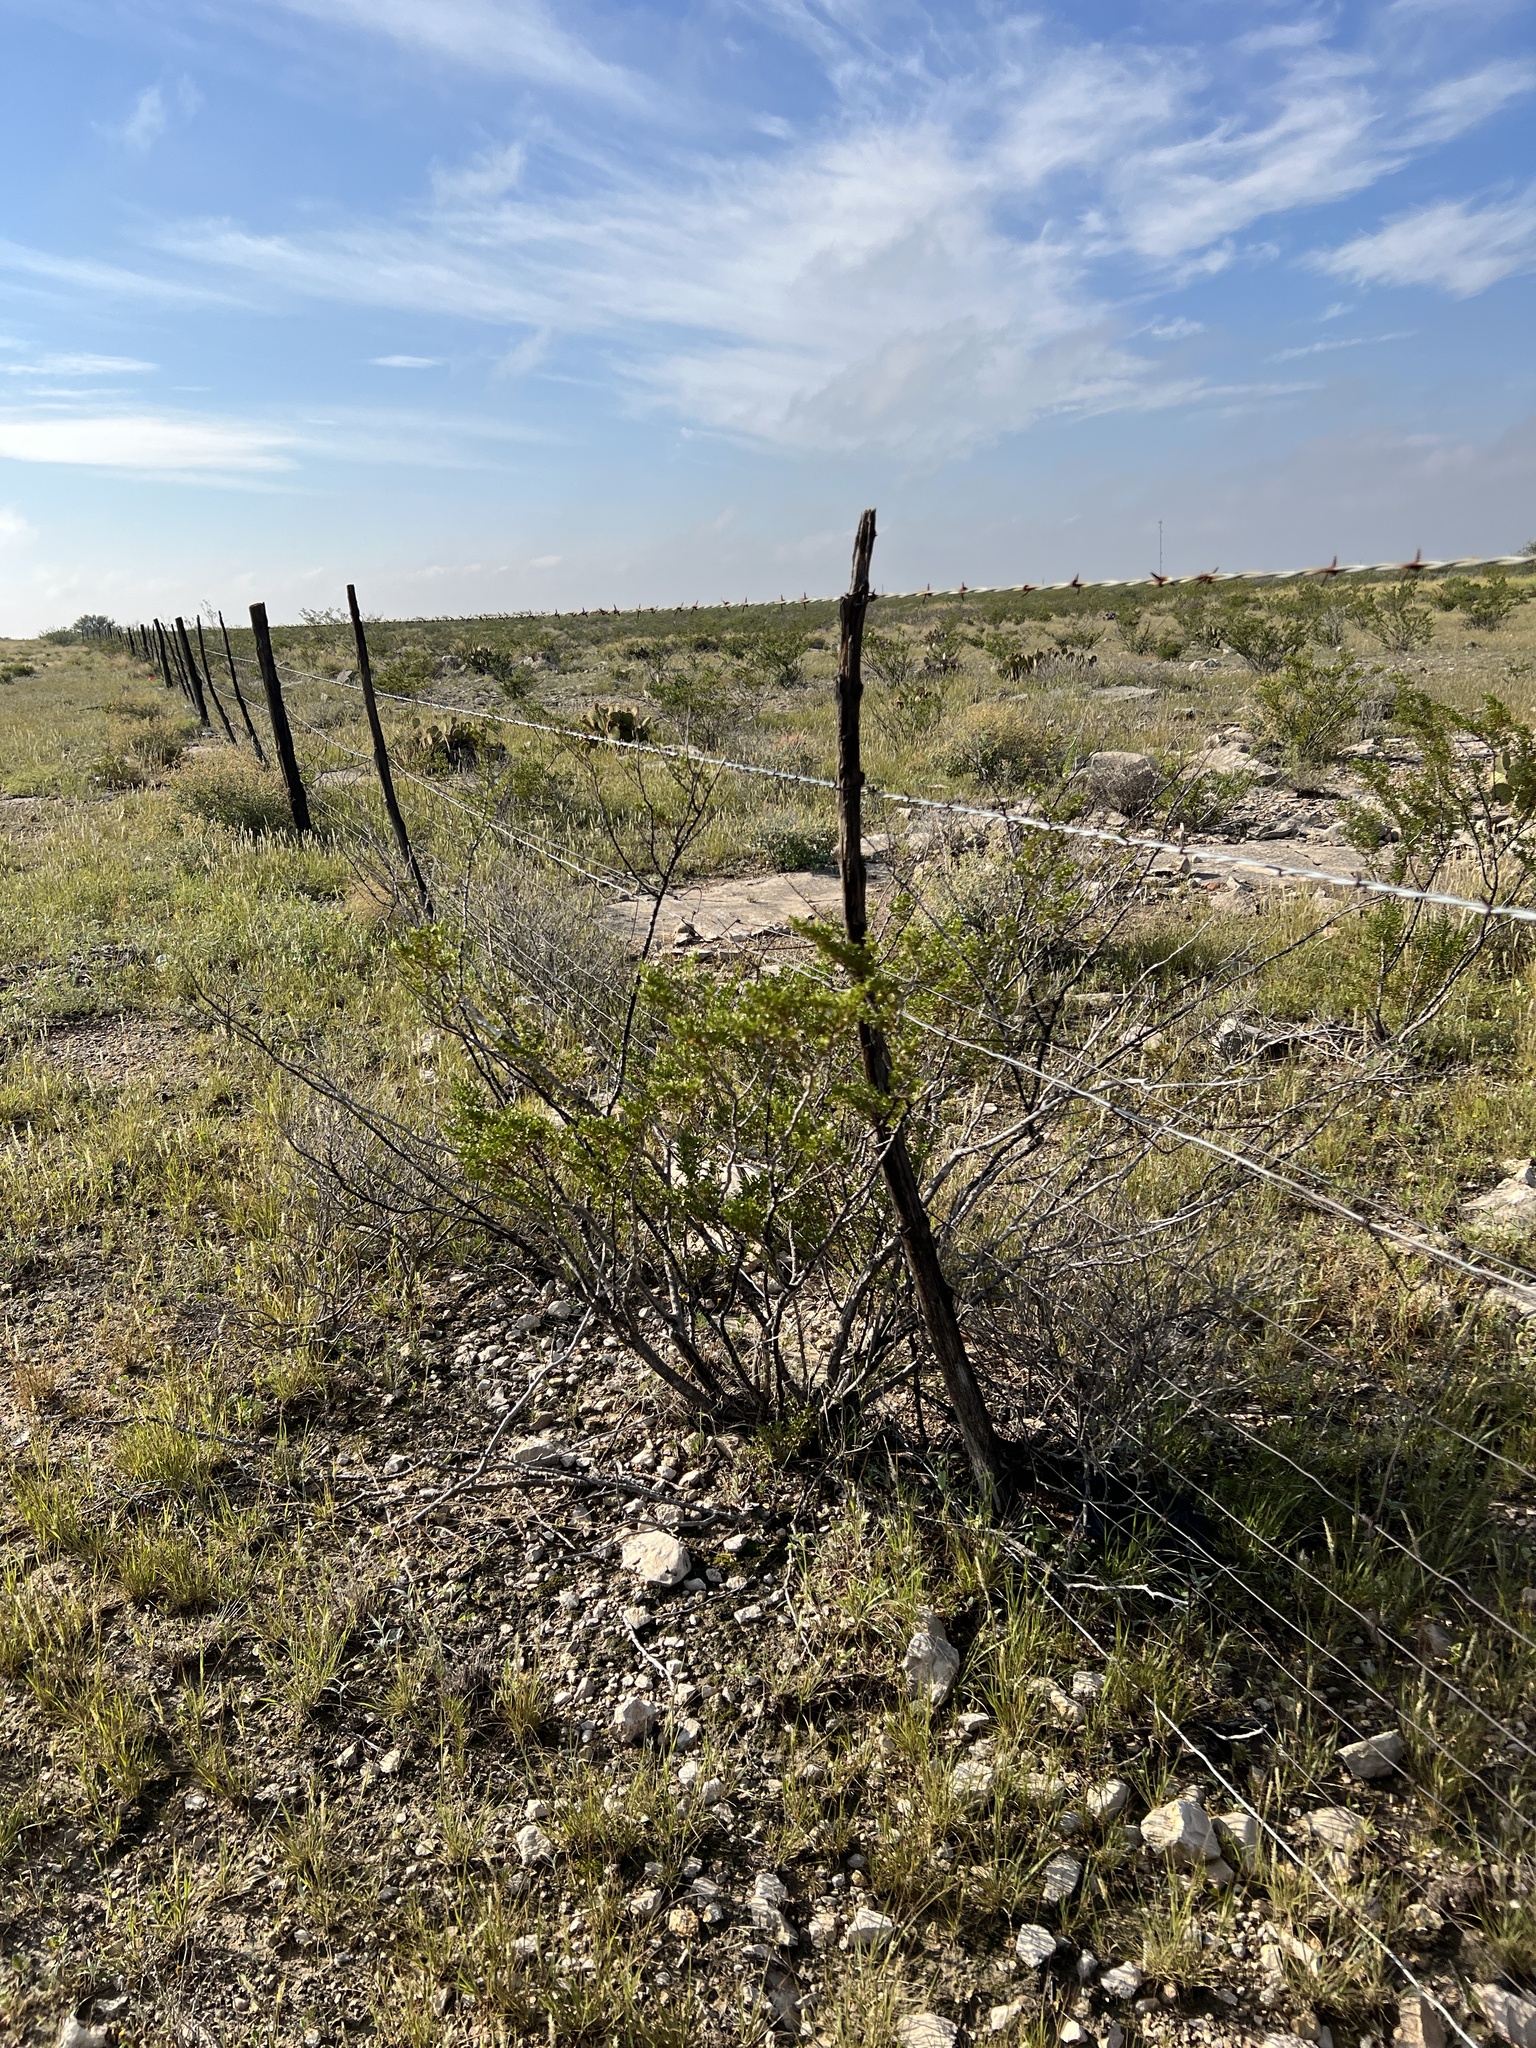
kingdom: Plantae
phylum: Tracheophyta
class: Magnoliopsida
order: Zygophyllales
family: Zygophyllaceae
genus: Larrea
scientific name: Larrea tridentata
